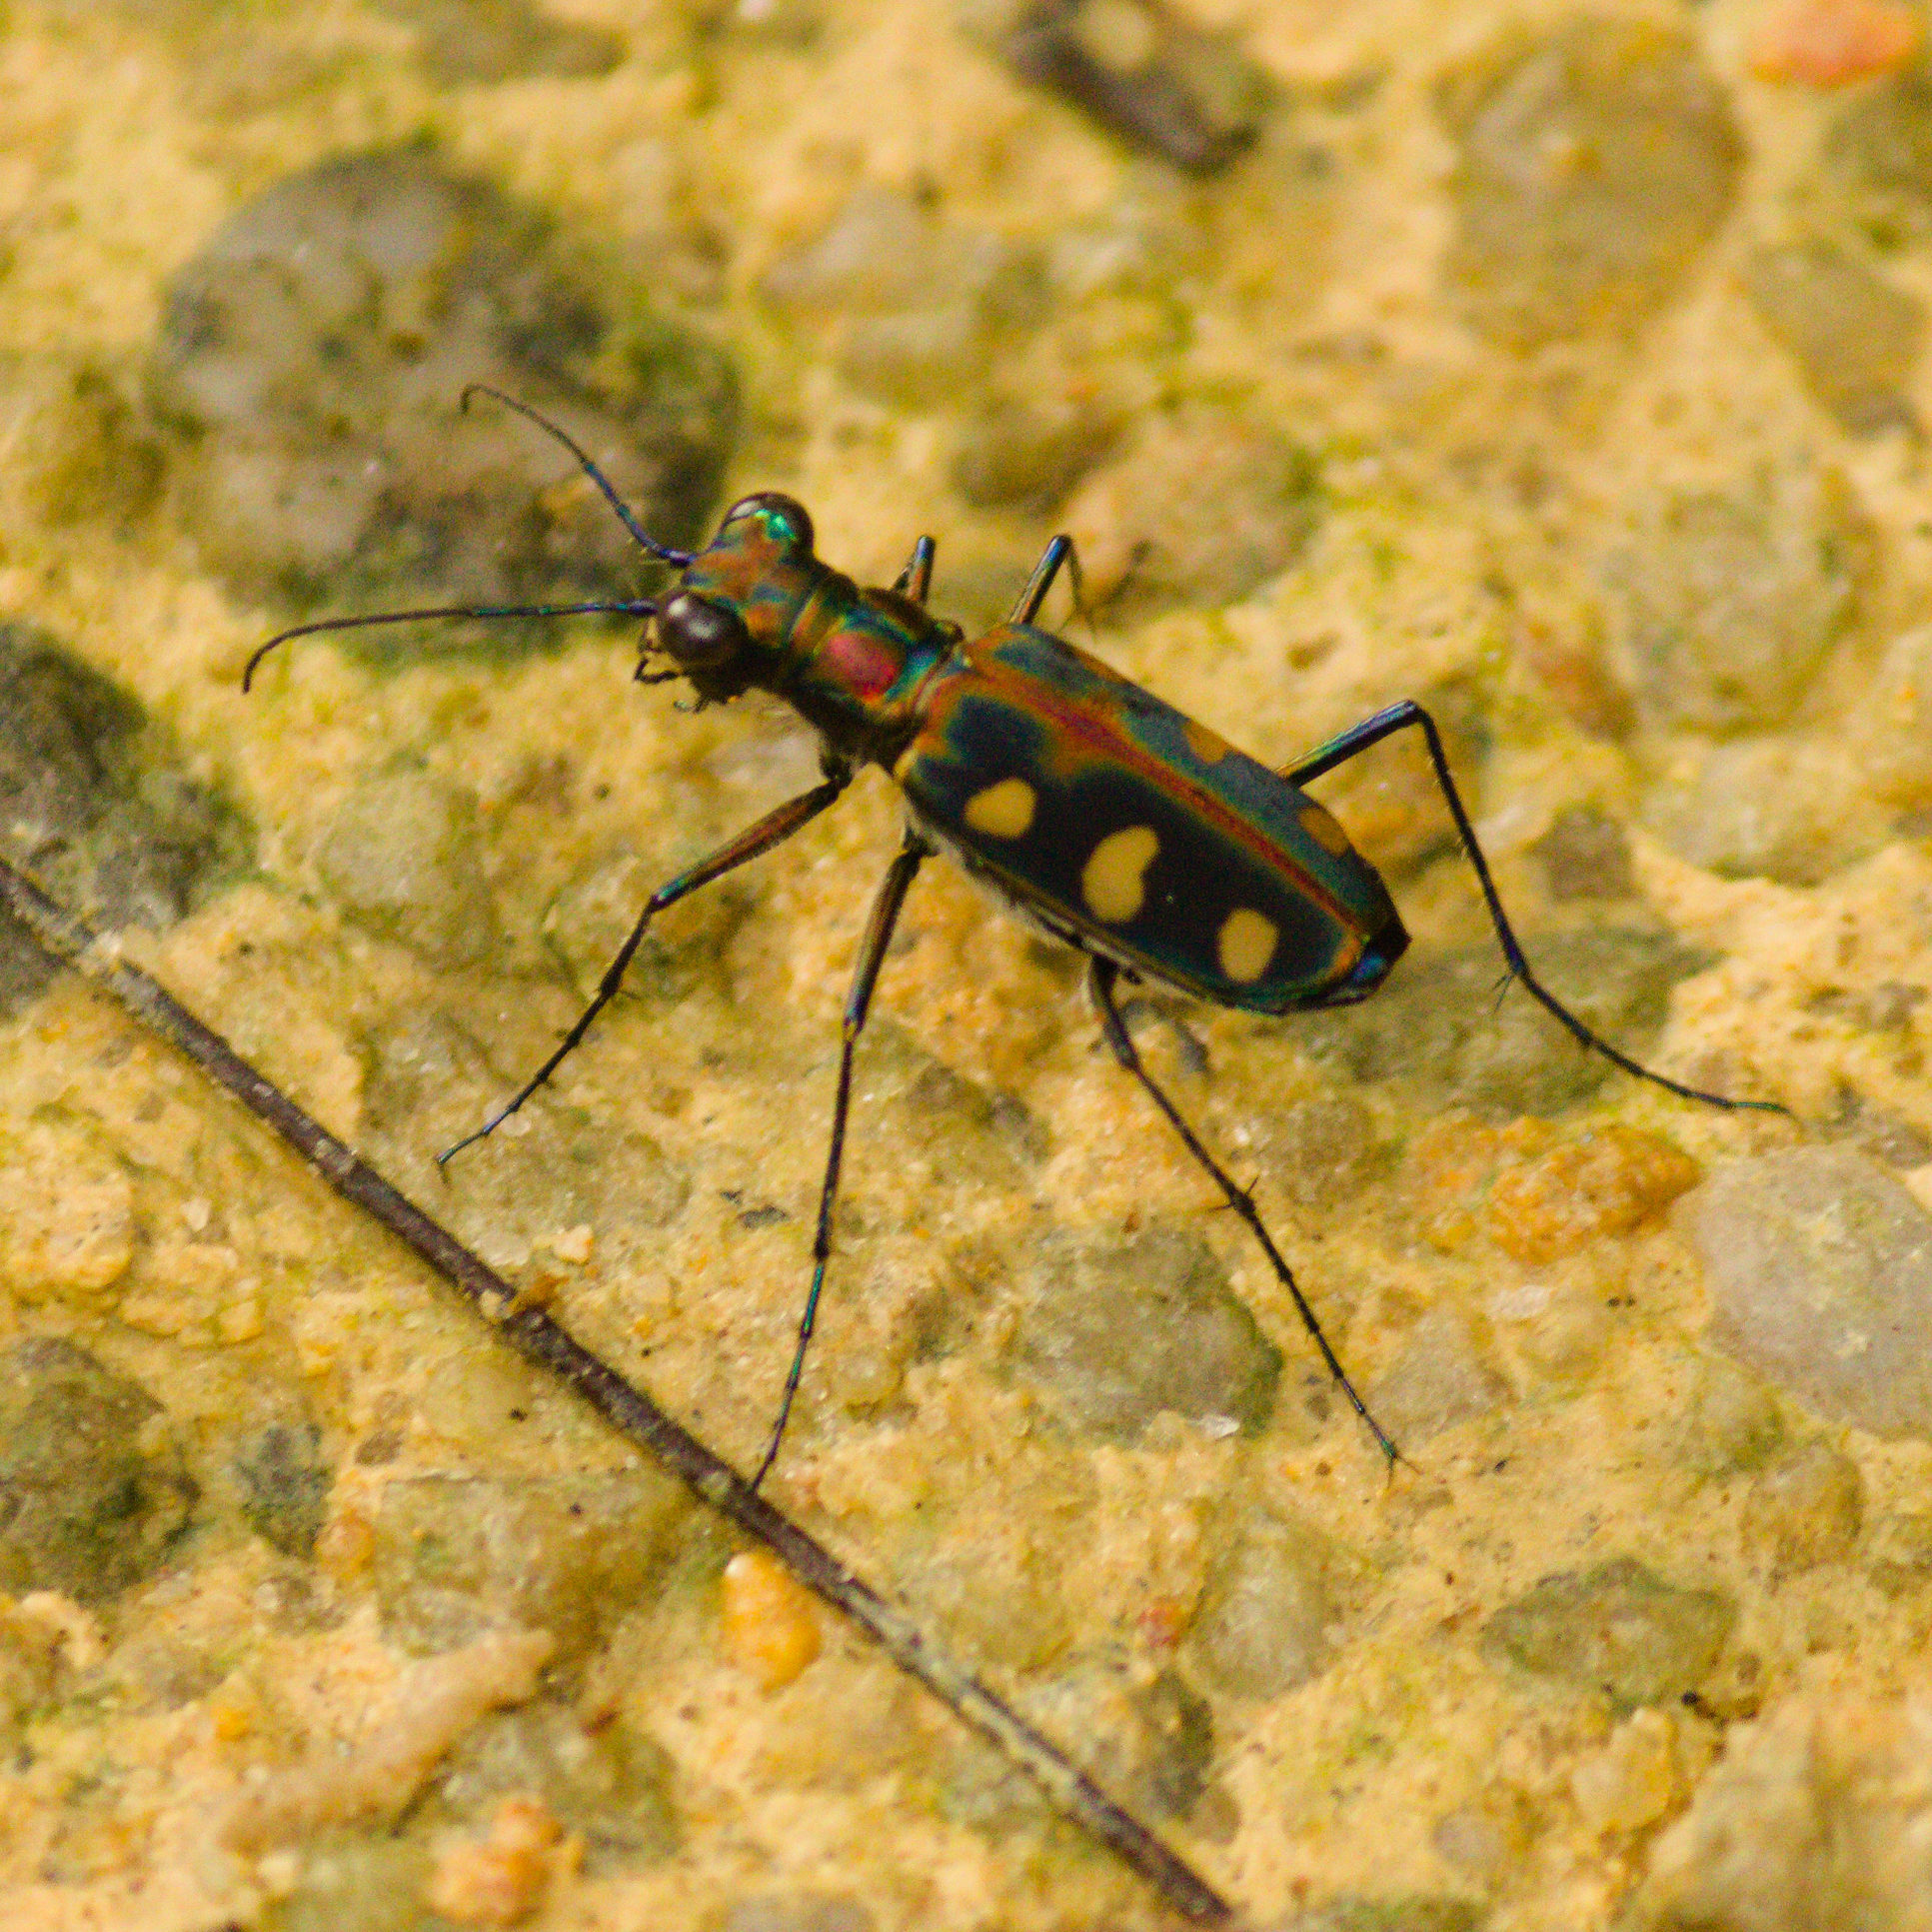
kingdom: Animalia
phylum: Arthropoda
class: Insecta
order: Coleoptera
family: Carabidae
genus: Cicindela
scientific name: Cicindela aurulenta
